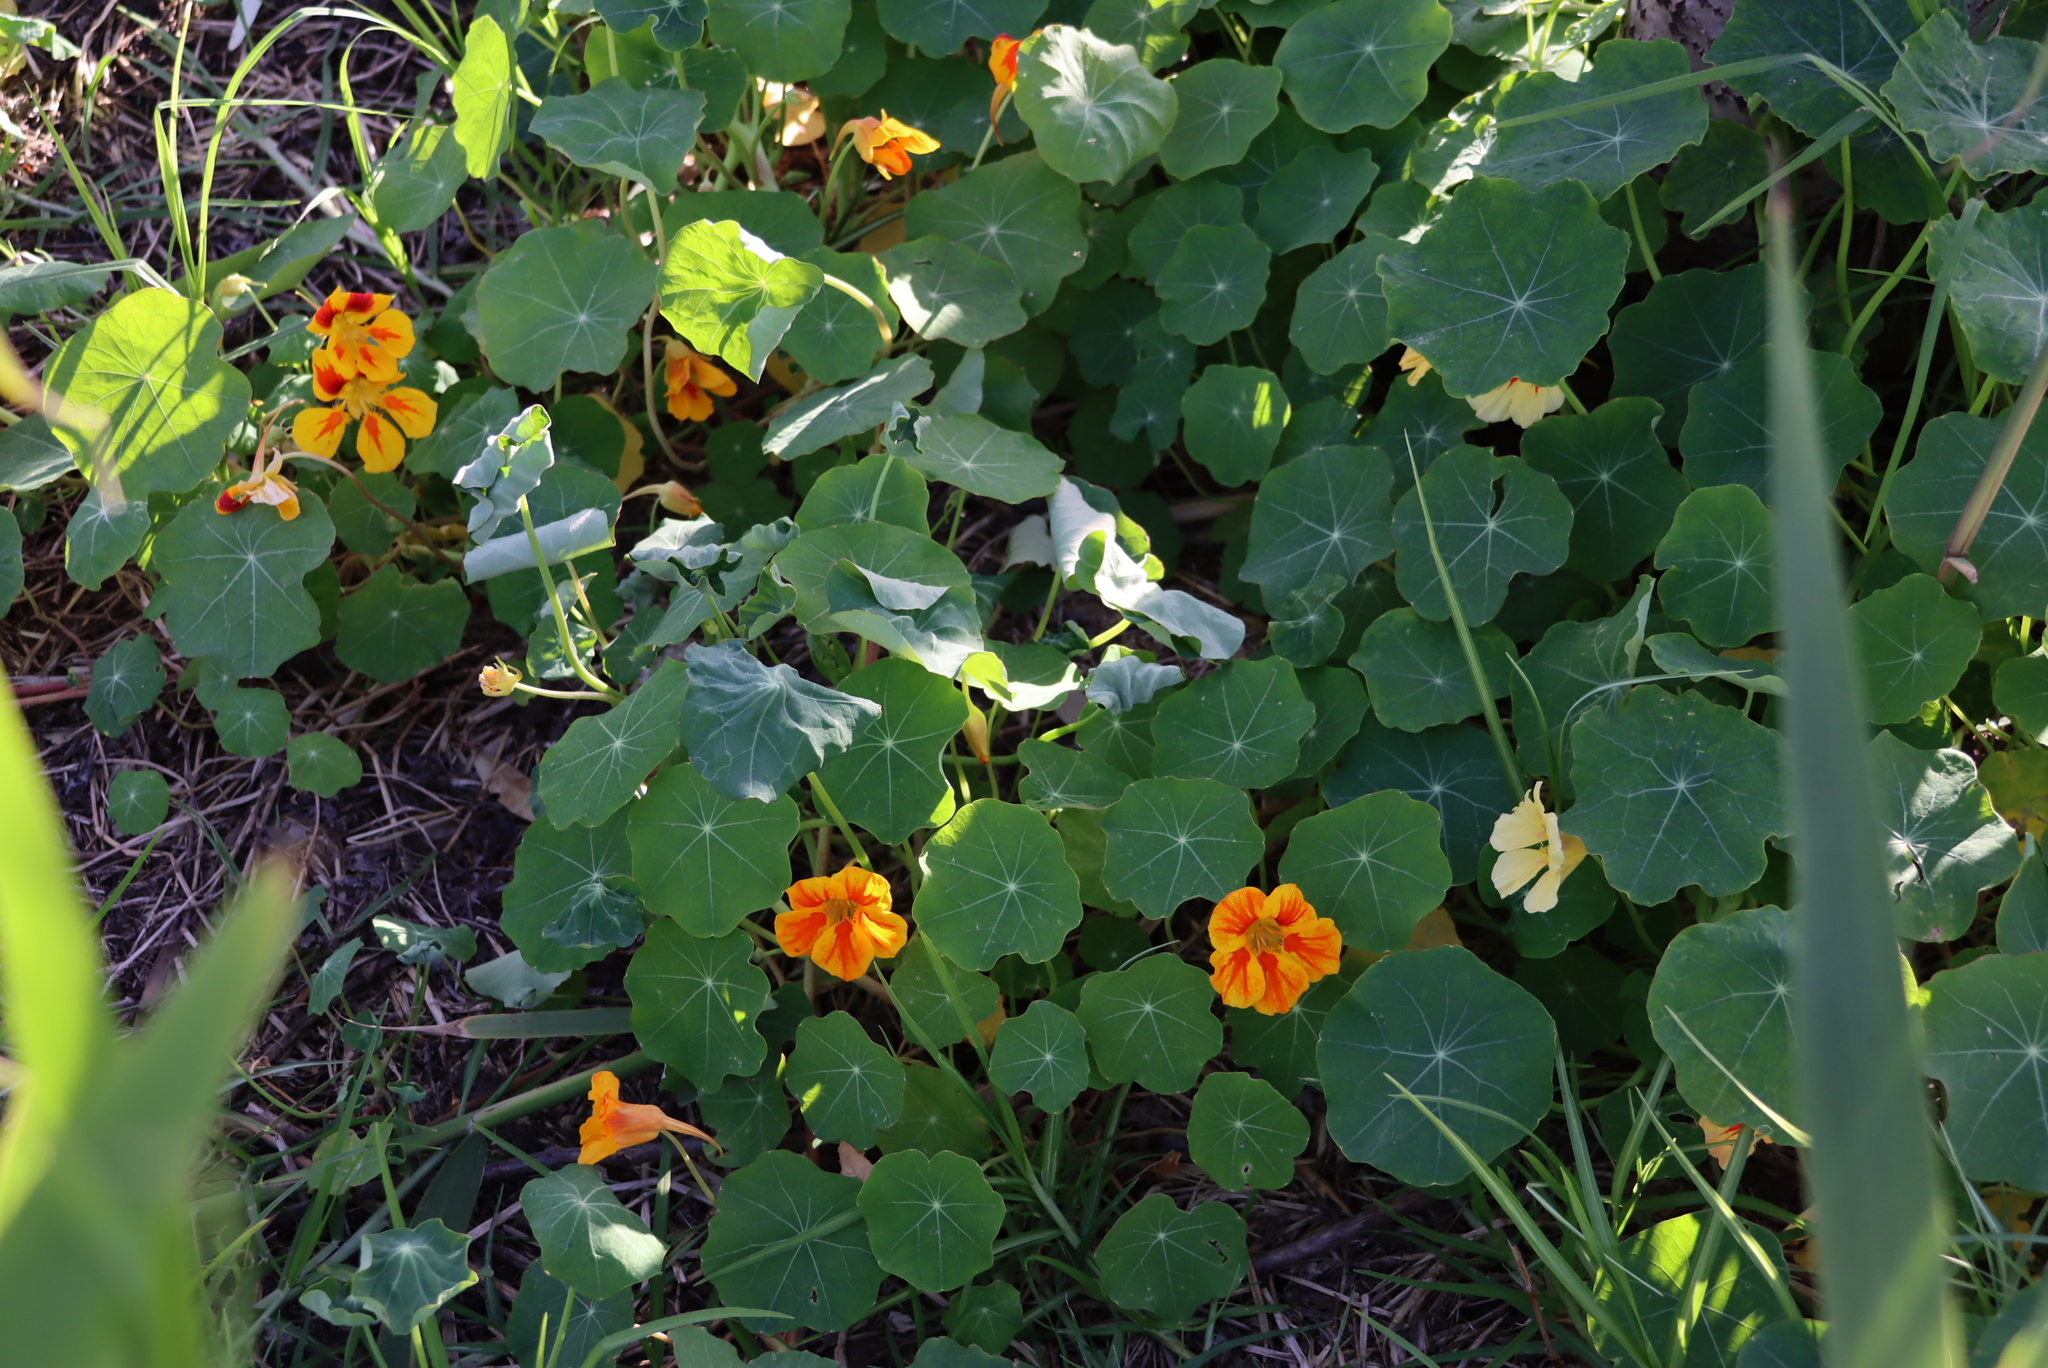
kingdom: Plantae
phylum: Tracheophyta
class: Magnoliopsida
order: Brassicales
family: Tropaeolaceae
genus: Tropaeolum
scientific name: Tropaeolum majus
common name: Nasturtium
